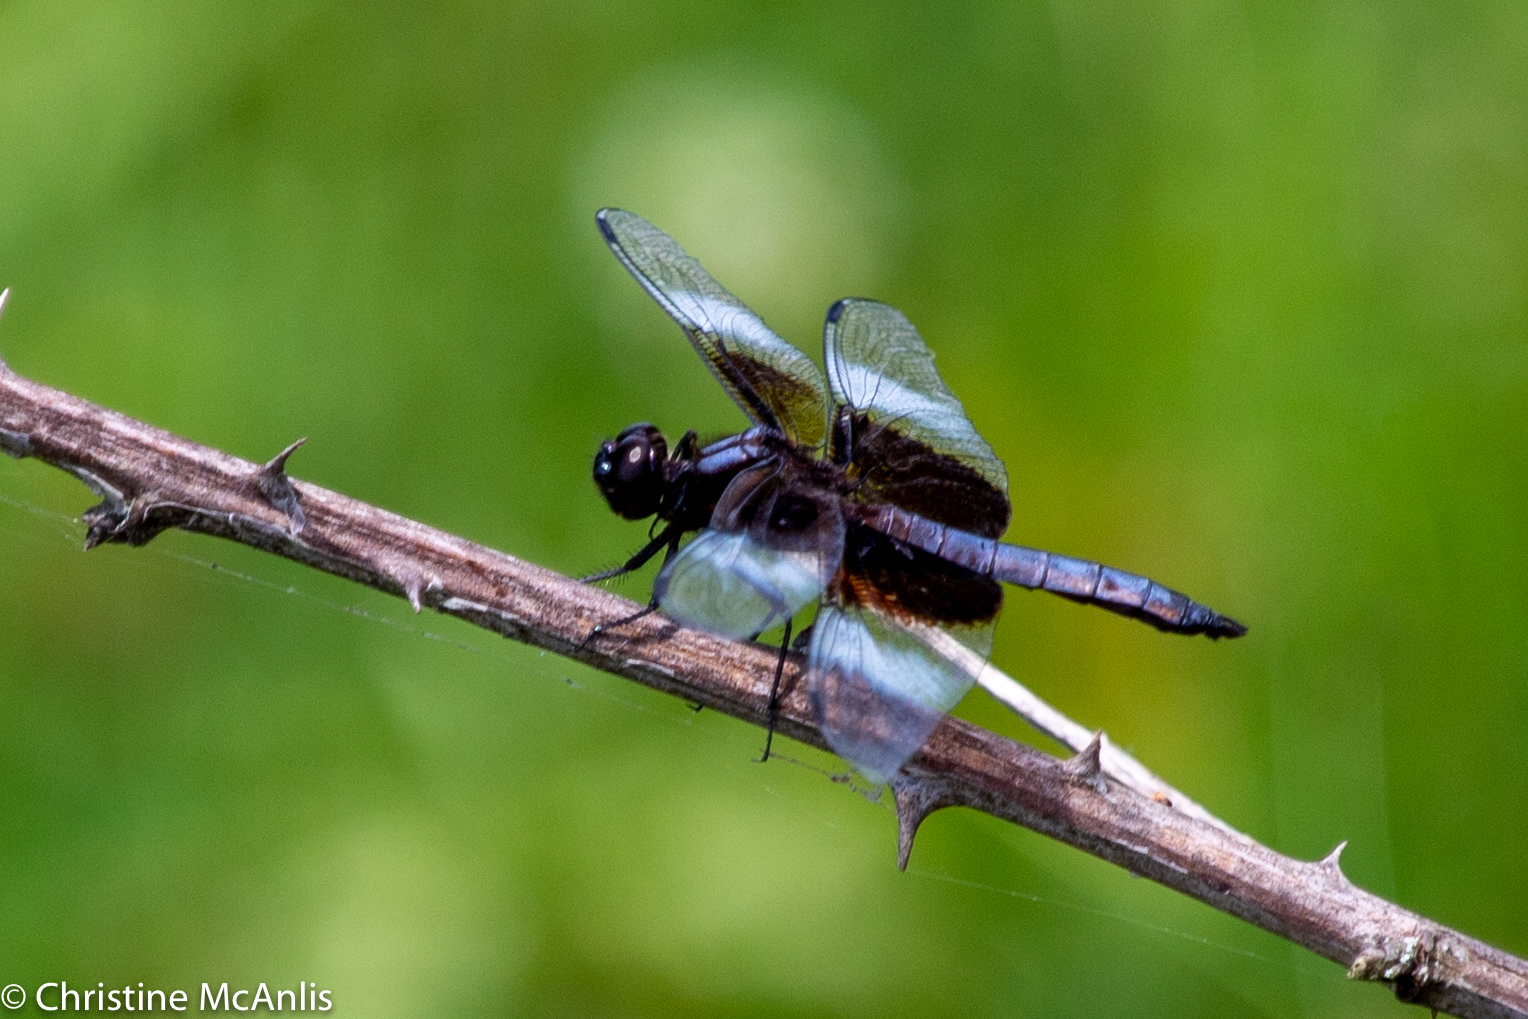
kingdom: Animalia
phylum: Arthropoda
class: Insecta
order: Odonata
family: Libellulidae
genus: Libellula
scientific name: Libellula luctuosa
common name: Widow skimmer
